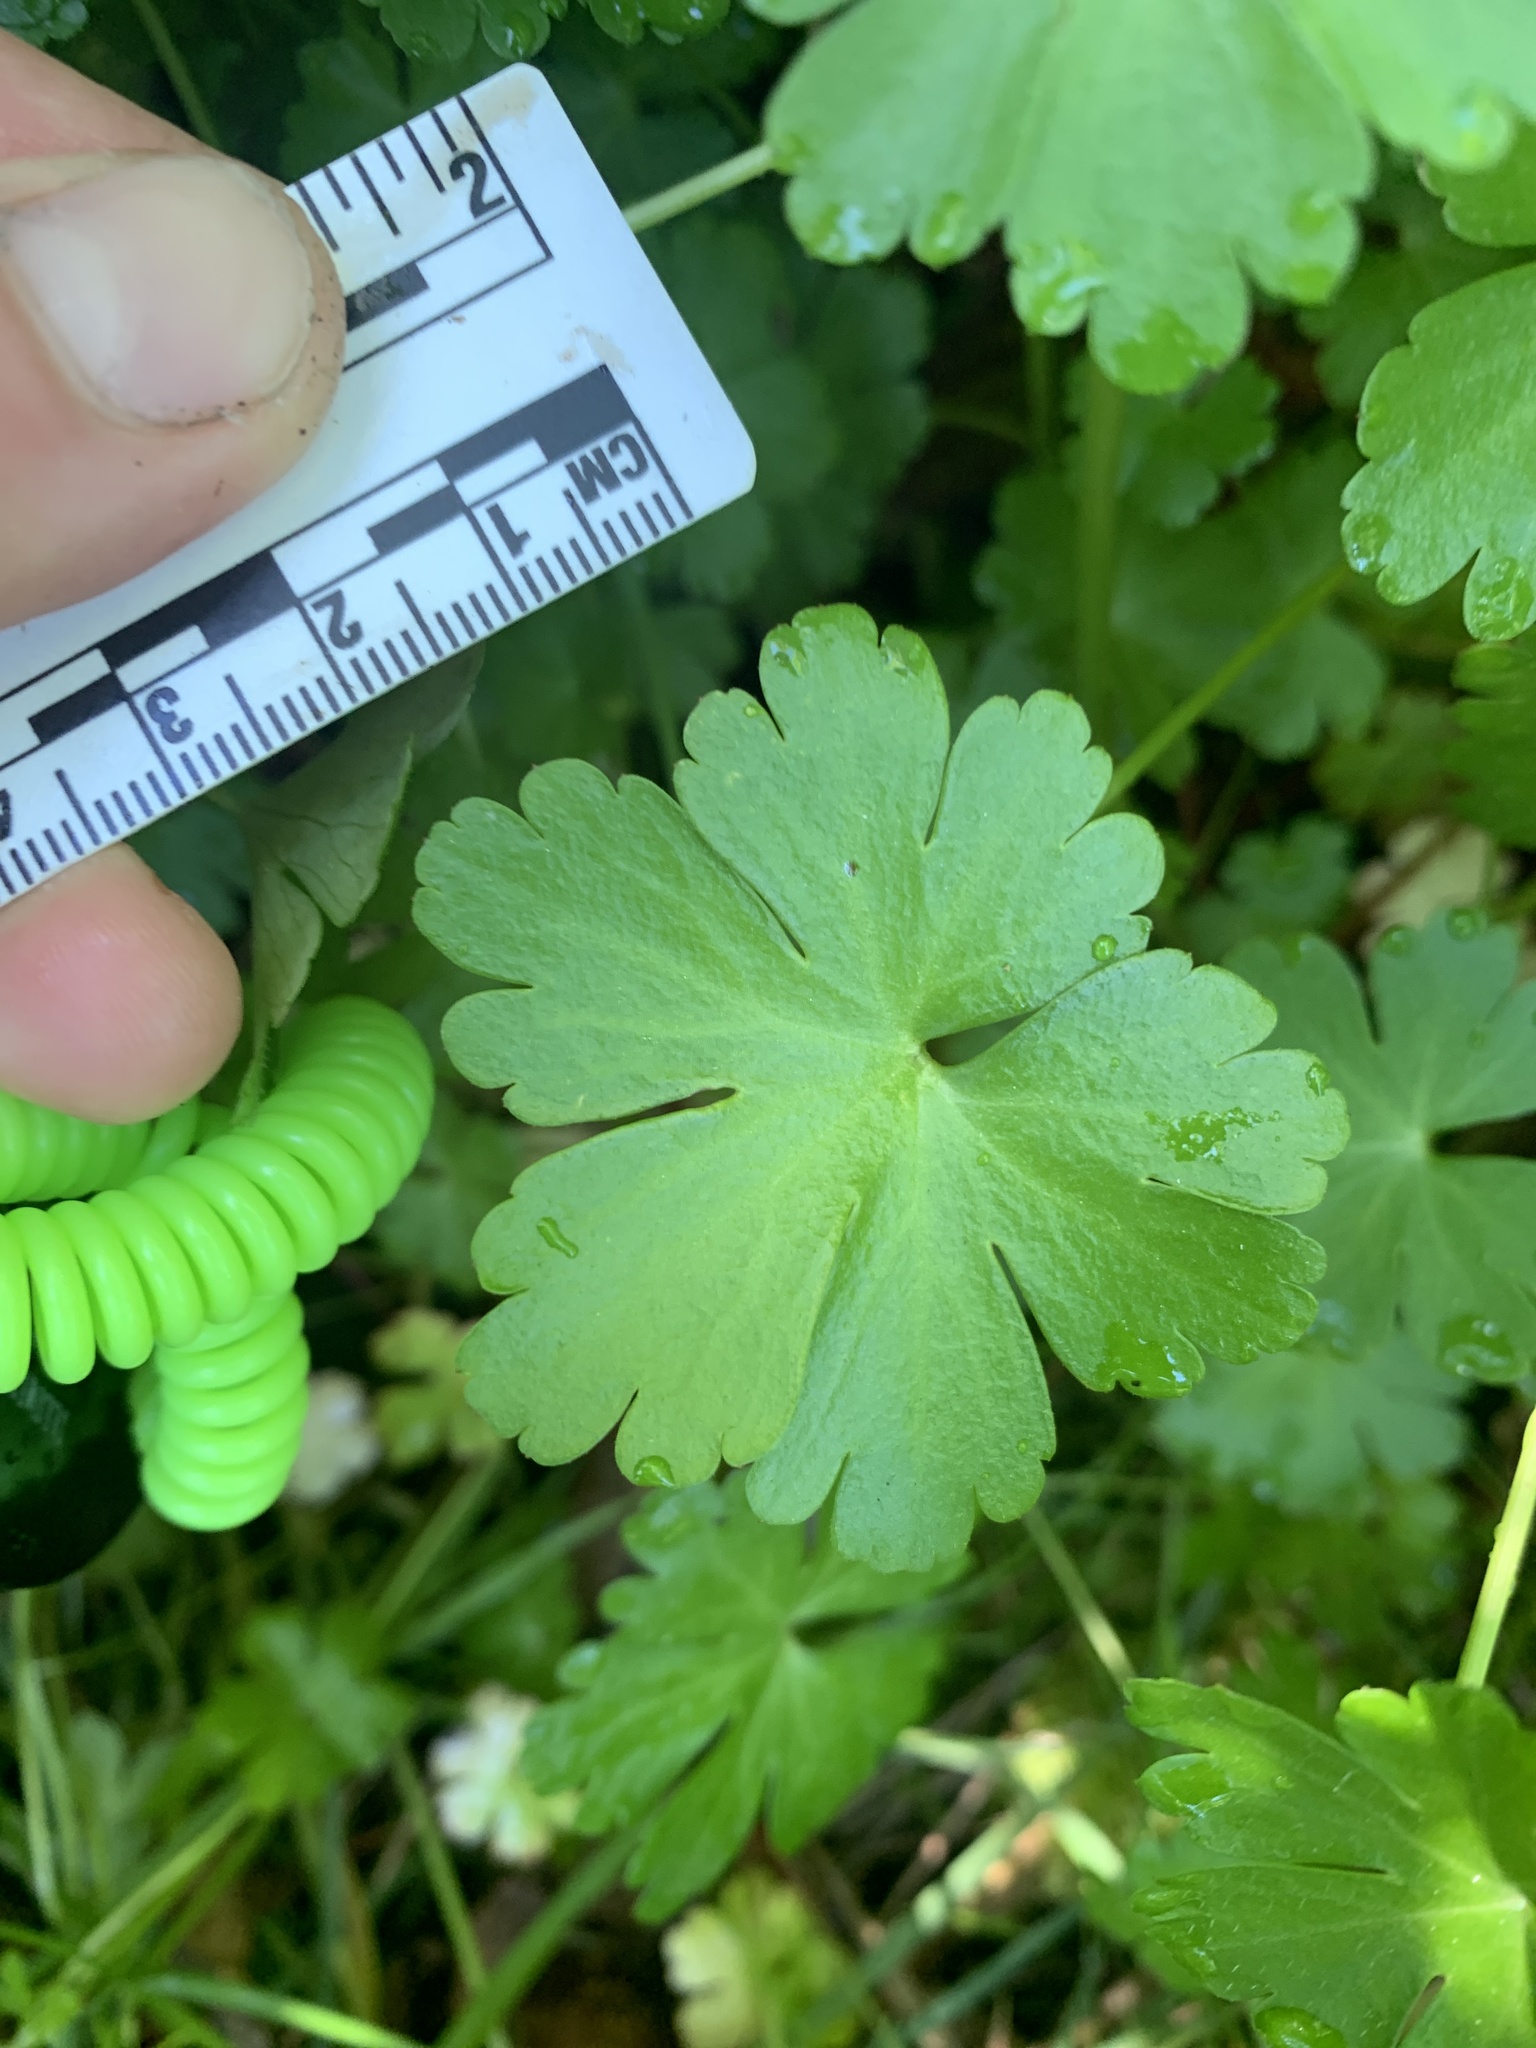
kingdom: Plantae
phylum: Tracheophyta
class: Magnoliopsida
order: Geraniales
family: Geraniaceae
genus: Geranium
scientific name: Geranium lucidum
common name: Shining crane's-bill
